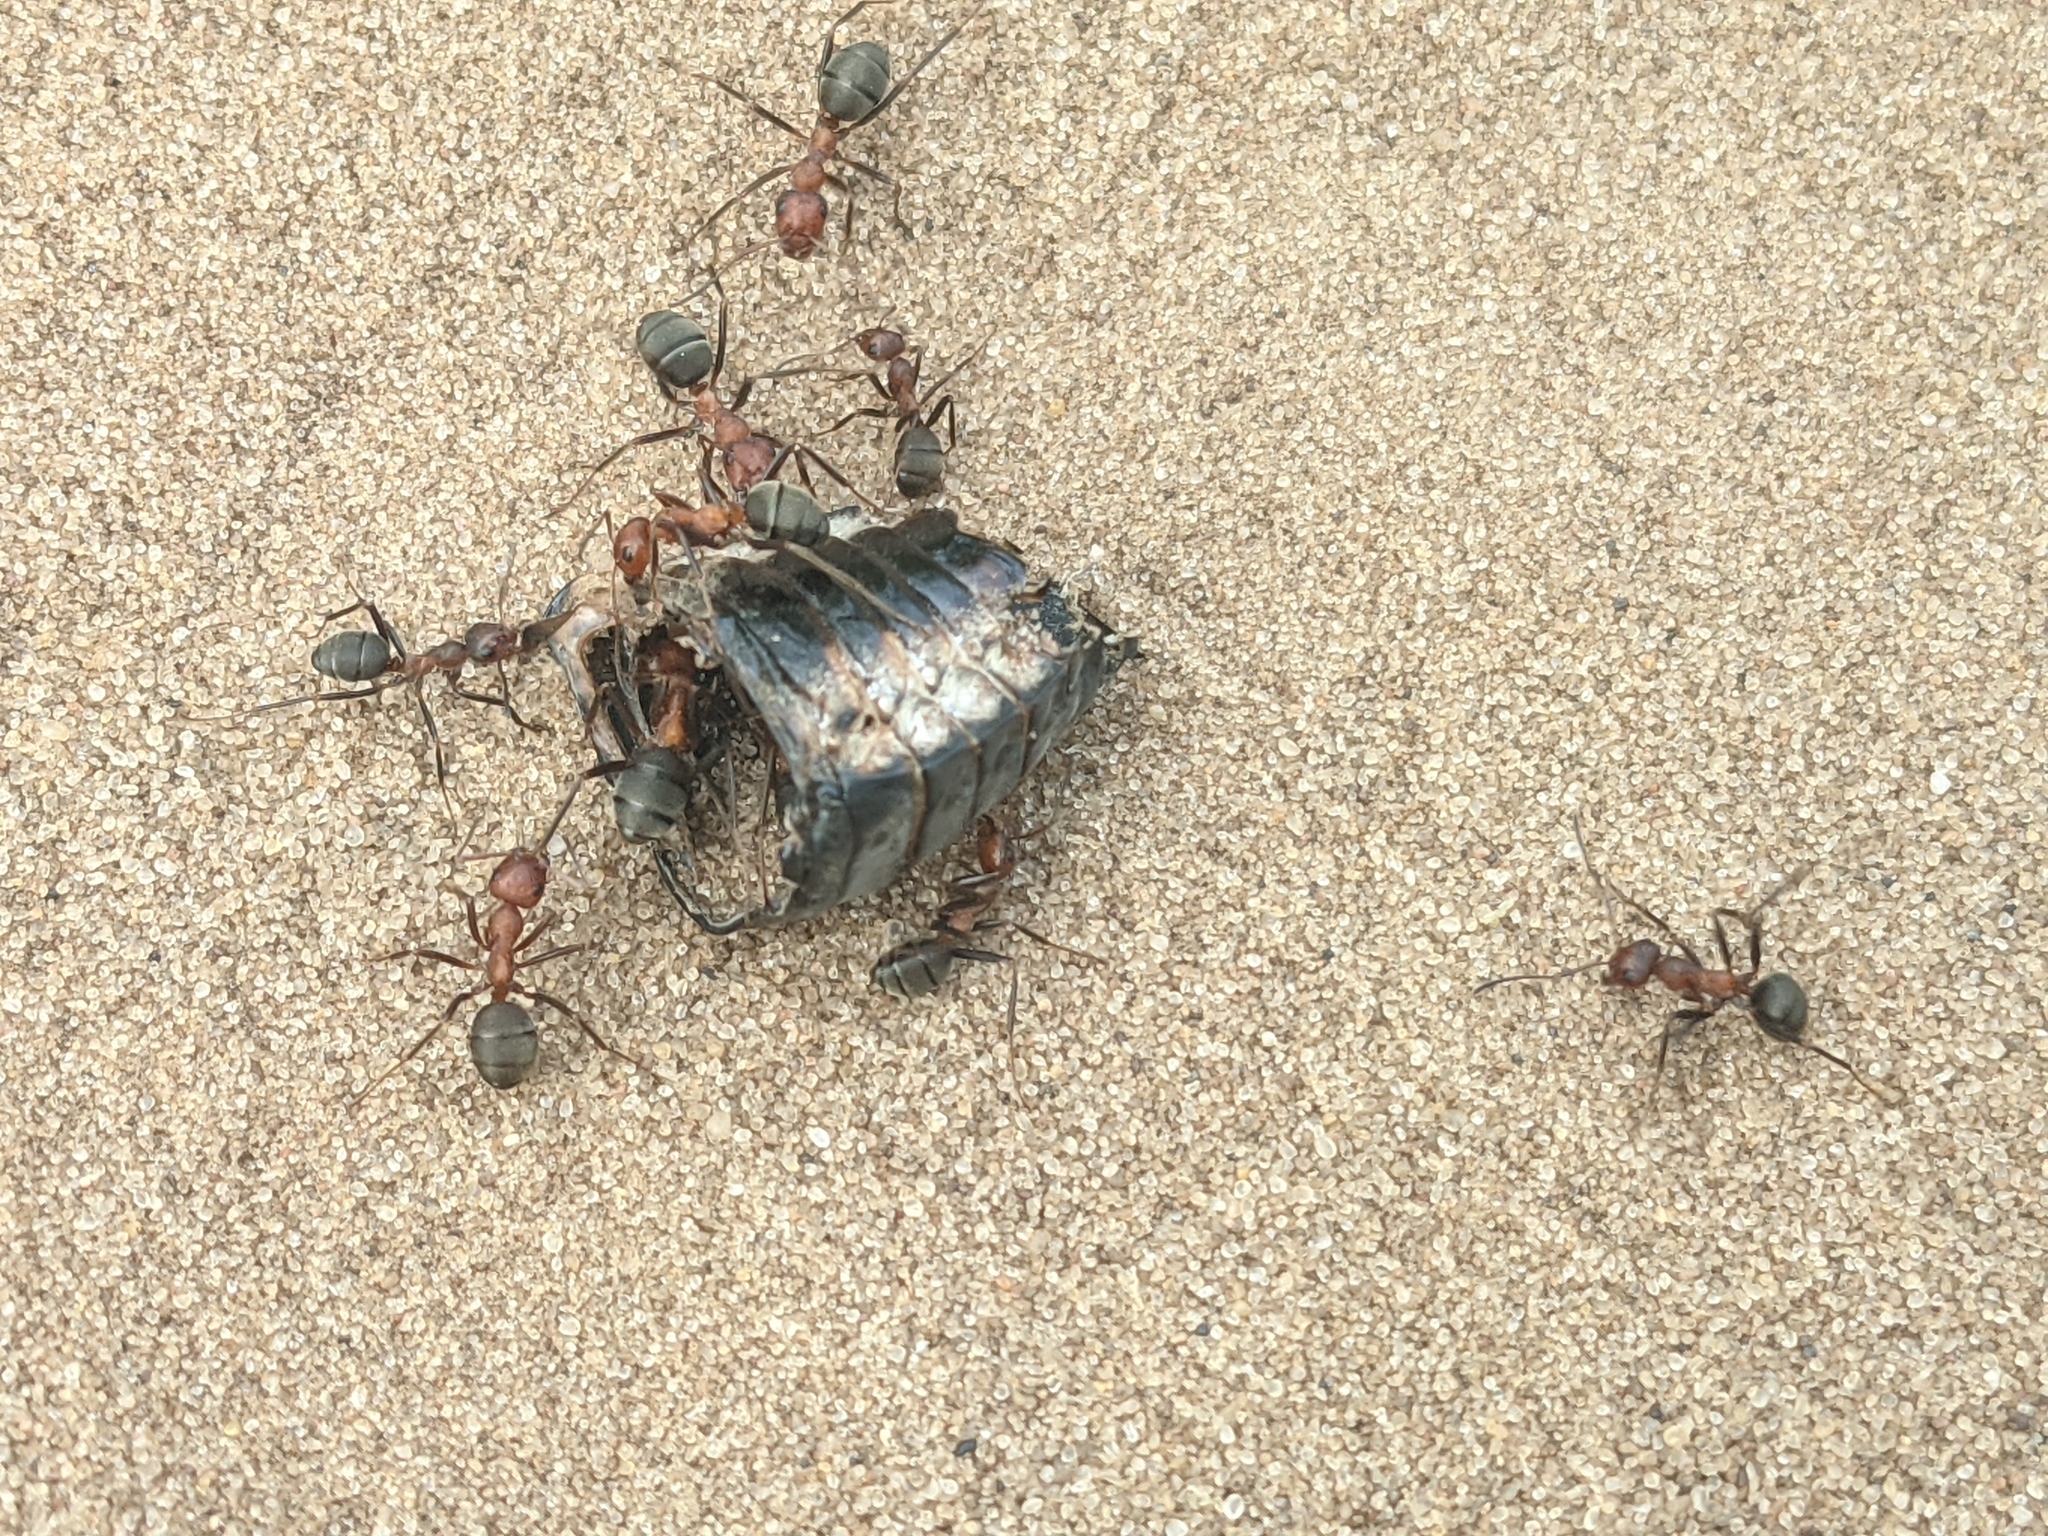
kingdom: Animalia
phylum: Arthropoda
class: Insecta
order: Hymenoptera
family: Formicidae
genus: Formica
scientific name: Formica prociliata
